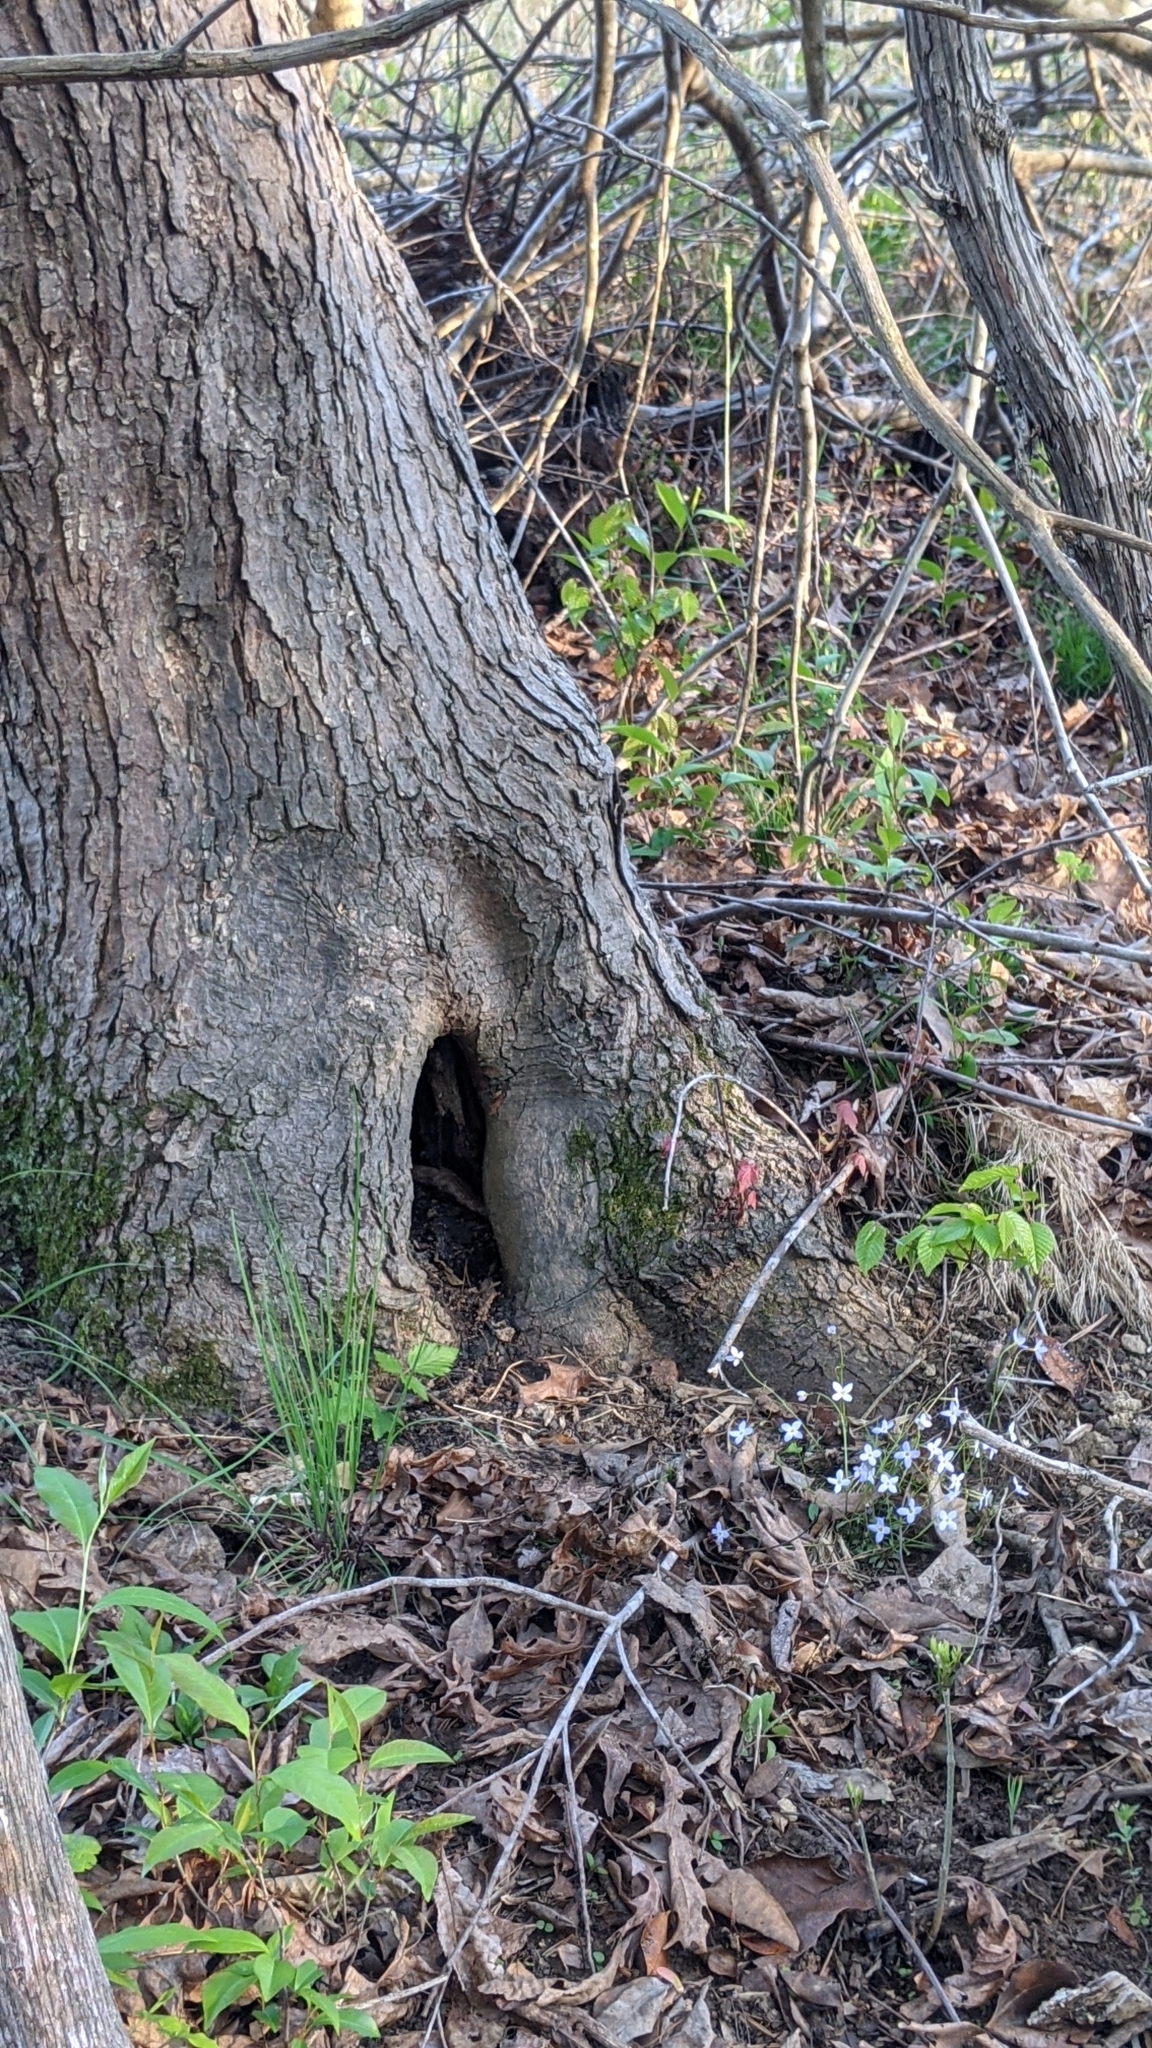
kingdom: Plantae
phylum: Tracheophyta
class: Magnoliopsida
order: Gentianales
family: Rubiaceae
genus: Houstonia
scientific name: Houstonia caerulea
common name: Bluets
